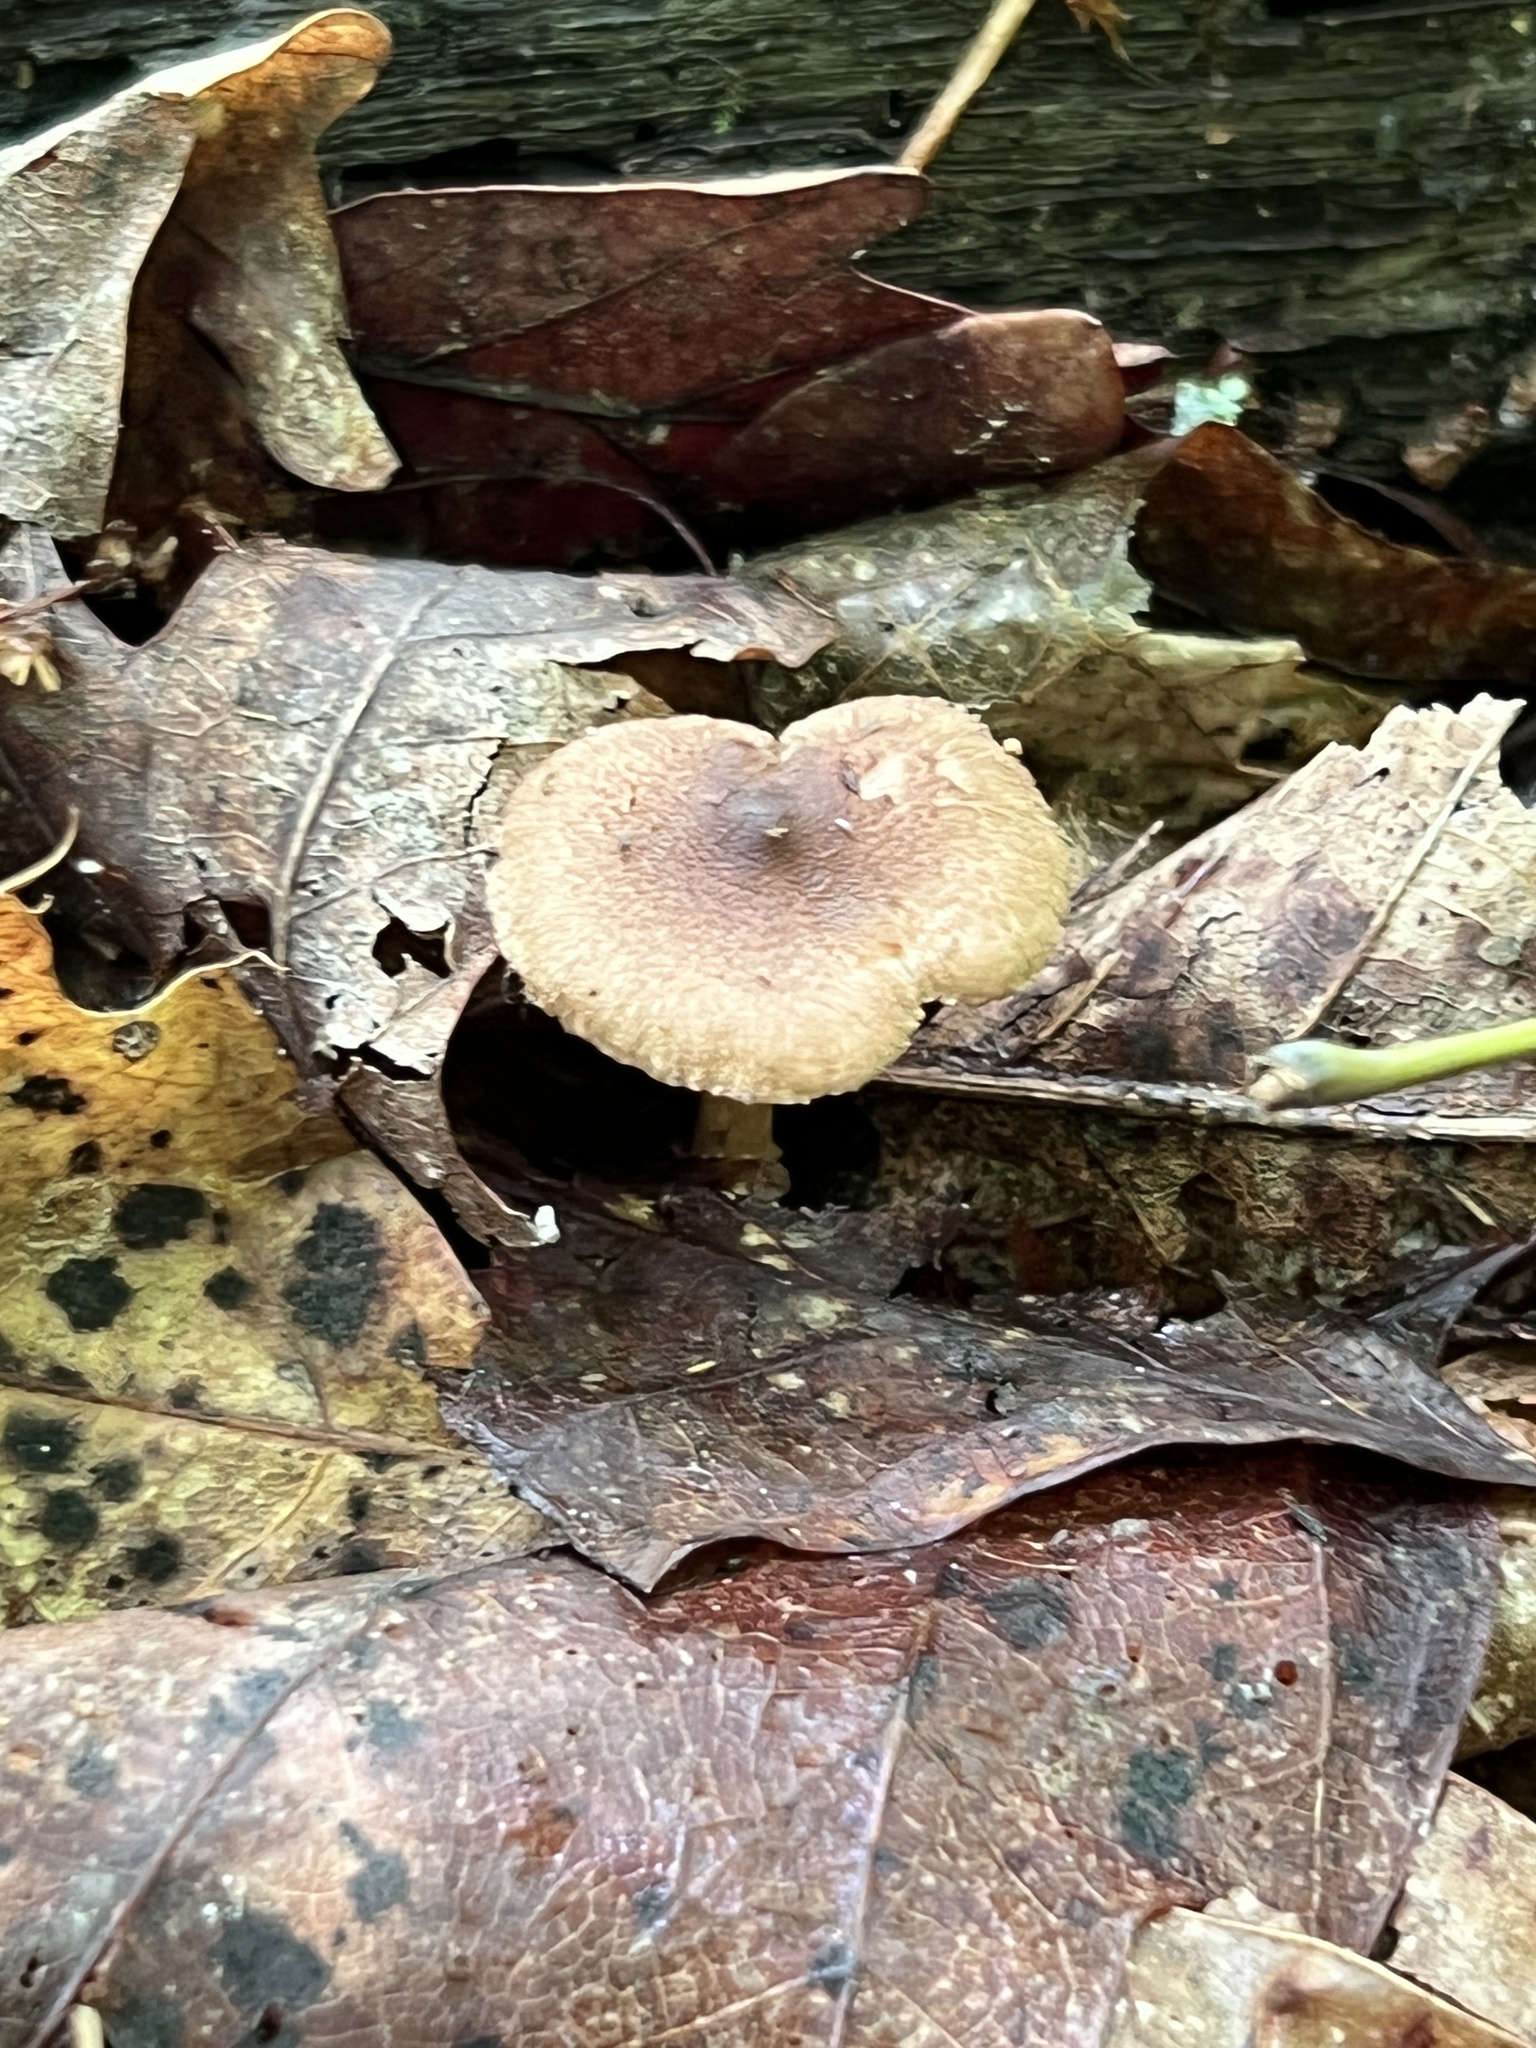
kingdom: Fungi
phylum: Basidiomycota
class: Agaricomycetes
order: Agaricales
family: Inocybaceae
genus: Mallocybe
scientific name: Mallocybe unicolor
